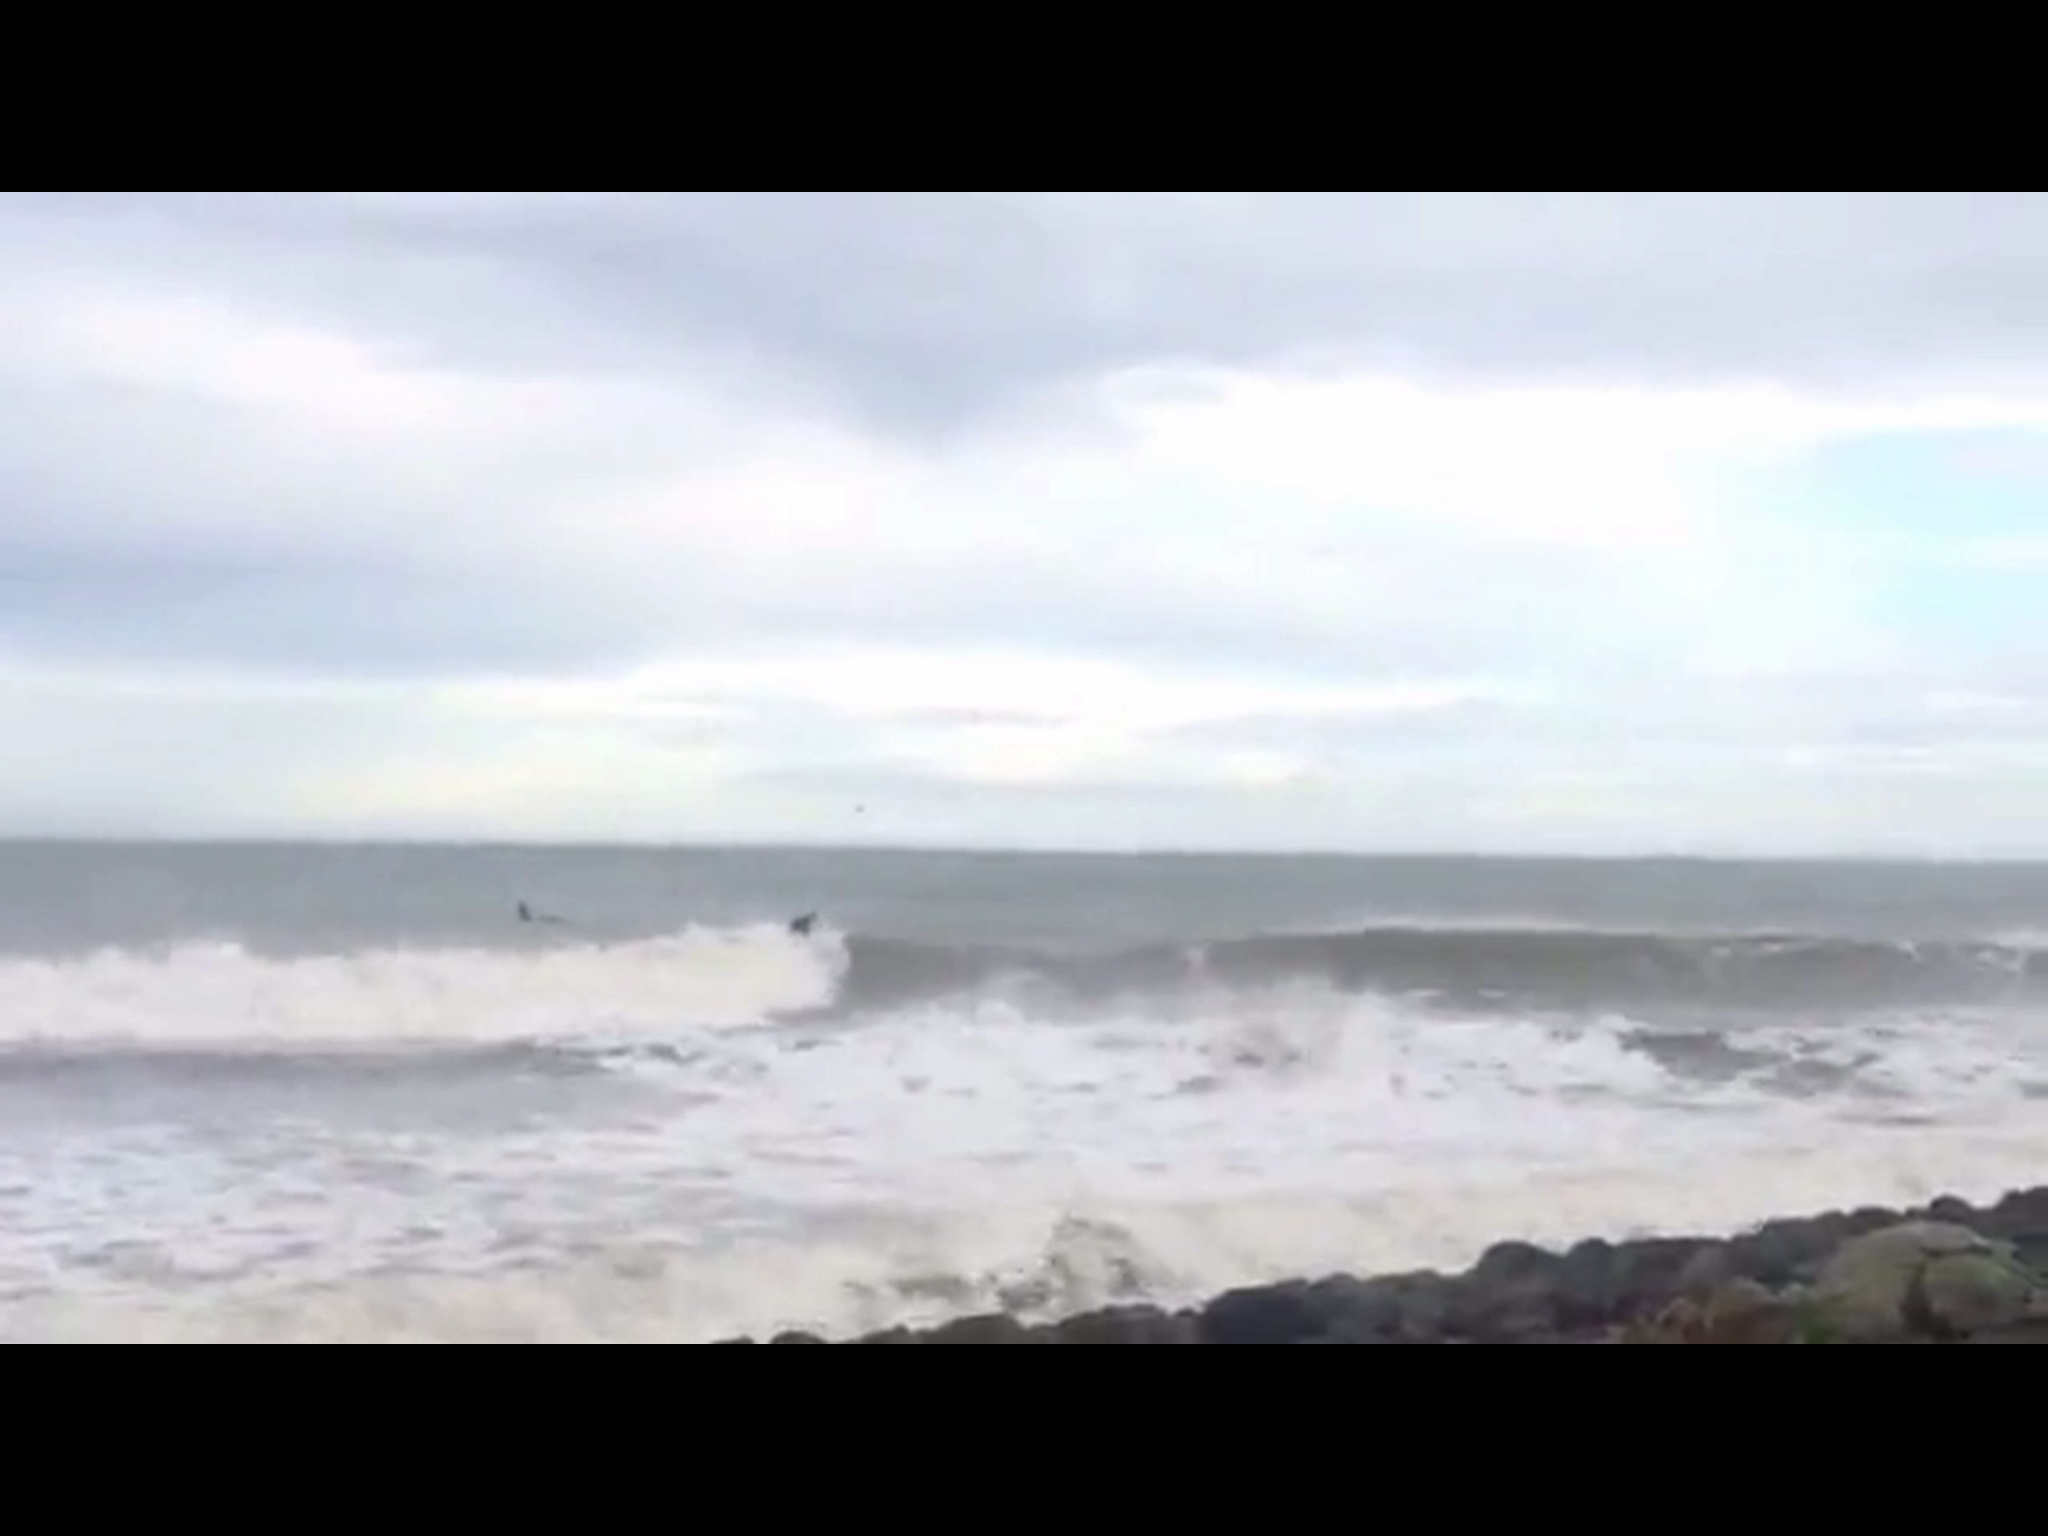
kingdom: Animalia
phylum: Chordata
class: Mammalia
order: Cetacea
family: Delphinidae
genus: Orcinus
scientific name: Orcinus orca
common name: Killer whale
